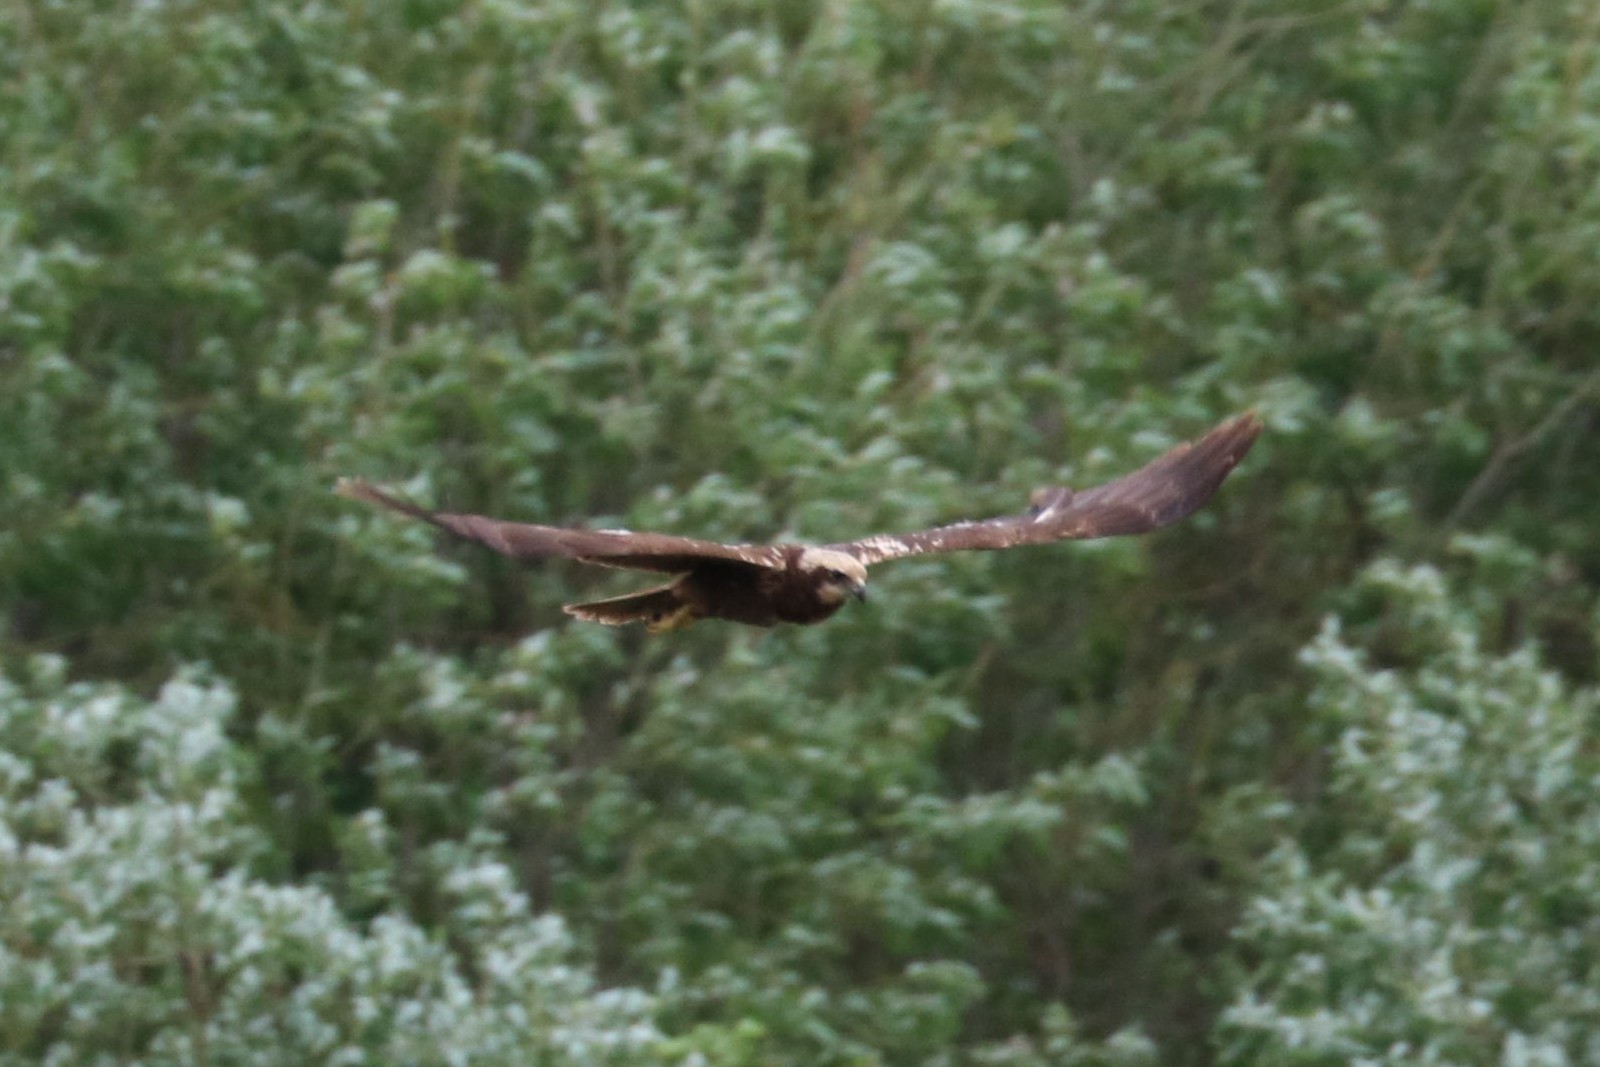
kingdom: Animalia
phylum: Chordata
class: Aves
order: Accipitriformes
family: Accipitridae
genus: Circus
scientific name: Circus aeruginosus
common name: Western marsh harrier
